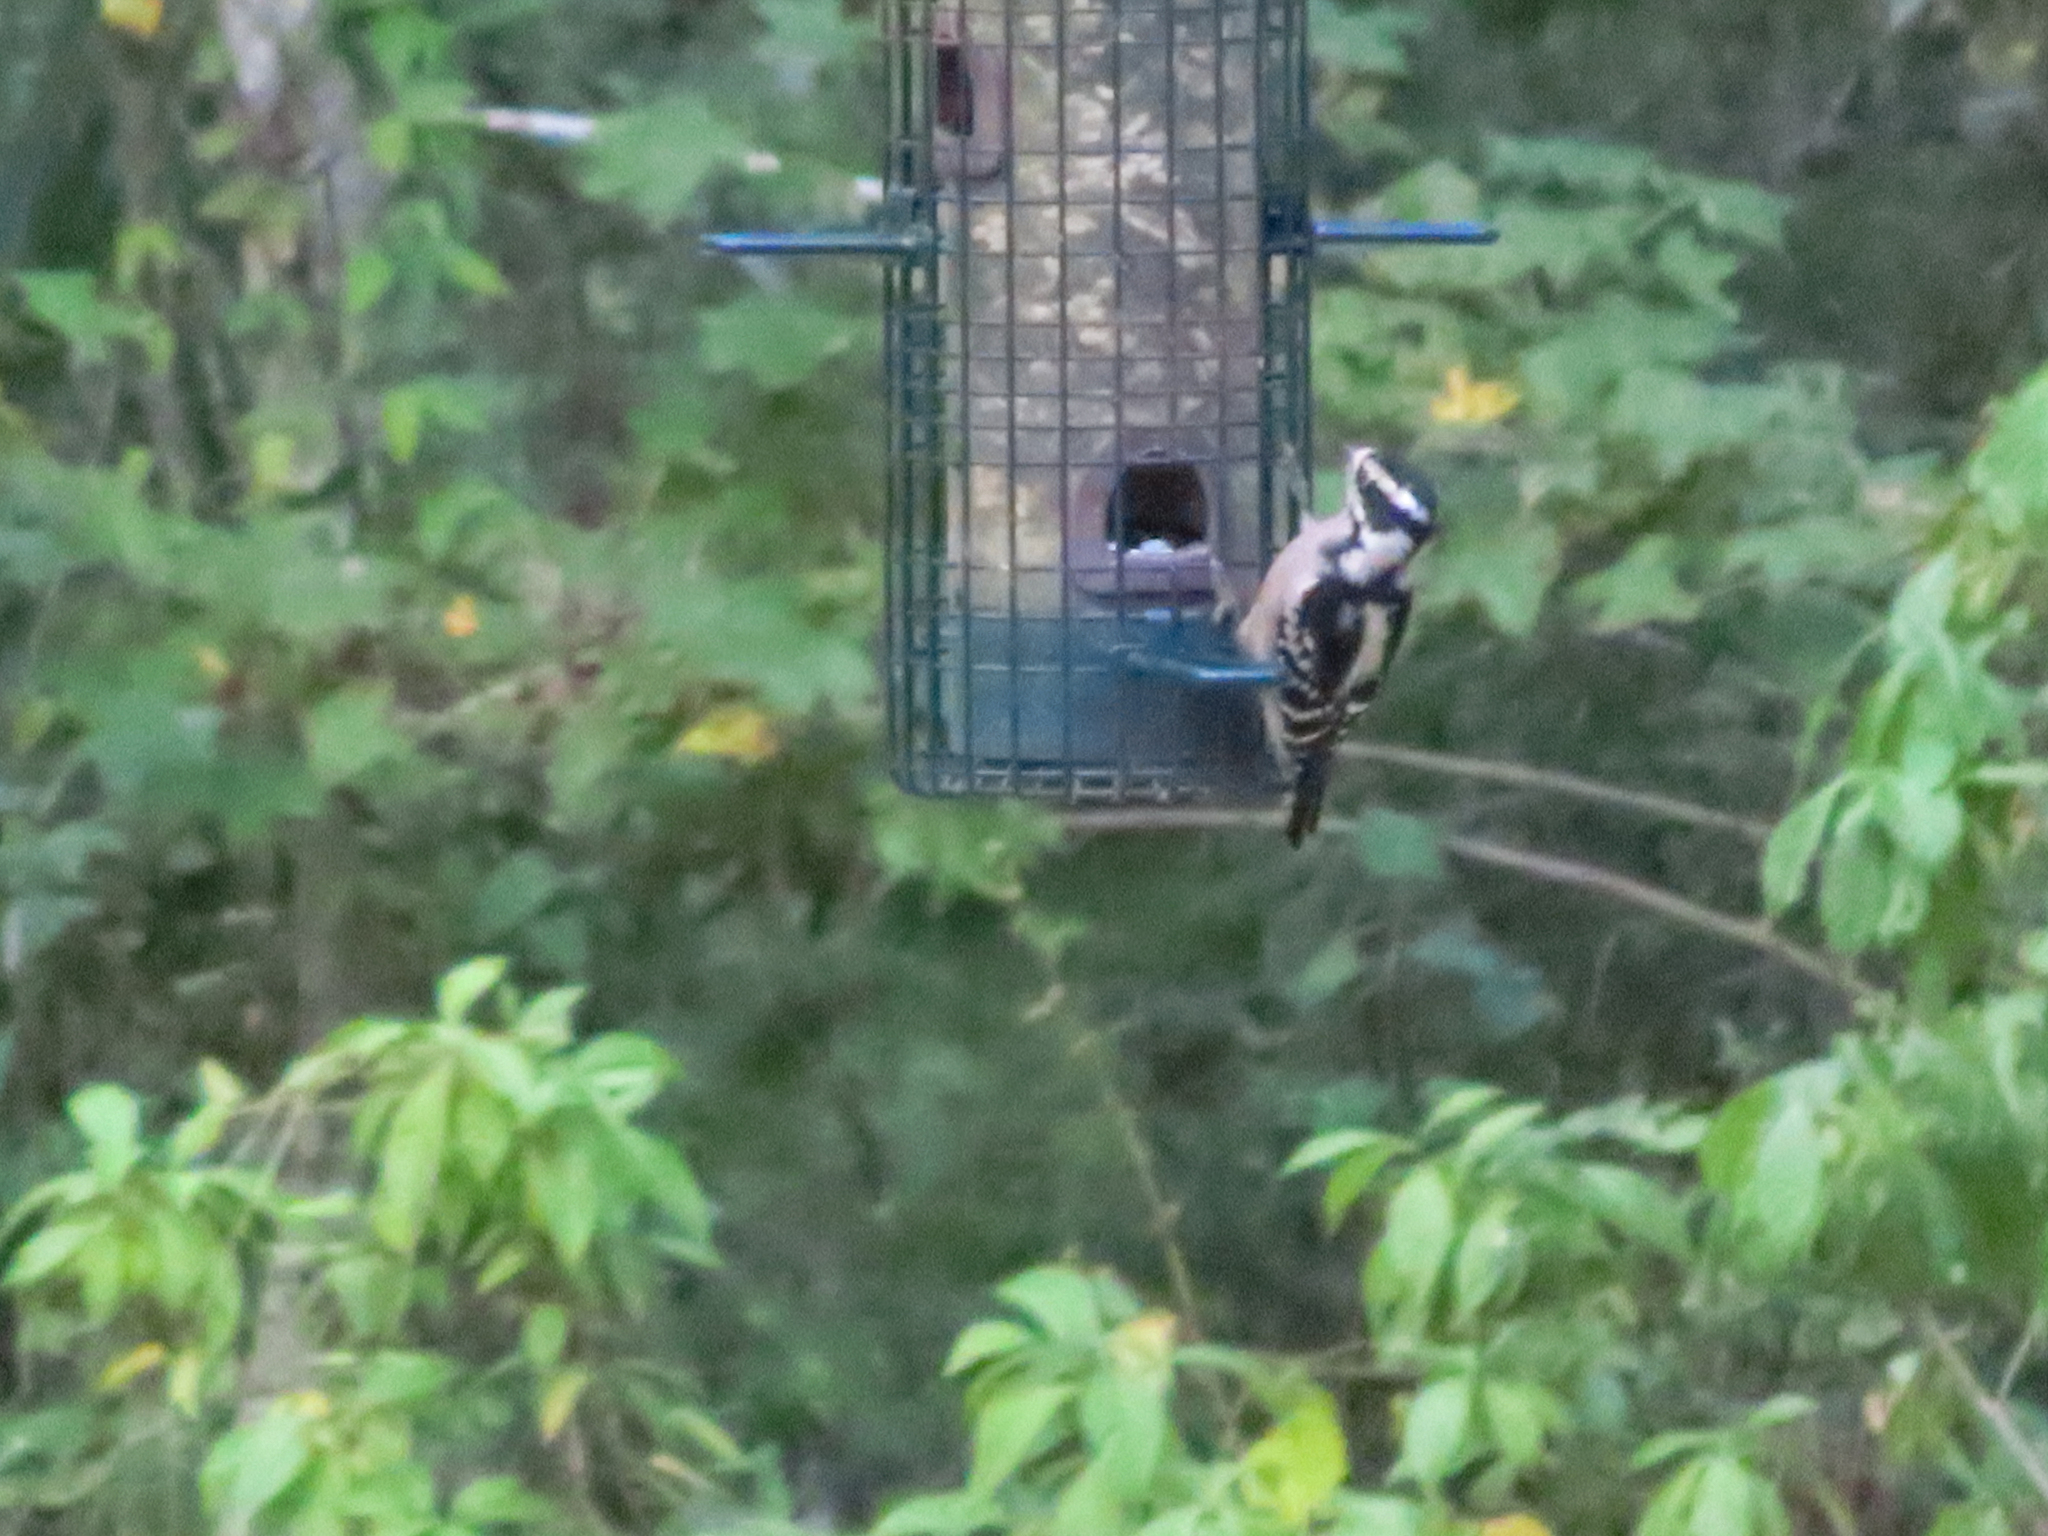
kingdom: Animalia
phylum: Chordata
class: Aves
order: Piciformes
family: Picidae
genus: Dryobates
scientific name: Dryobates pubescens
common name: Downy woodpecker
